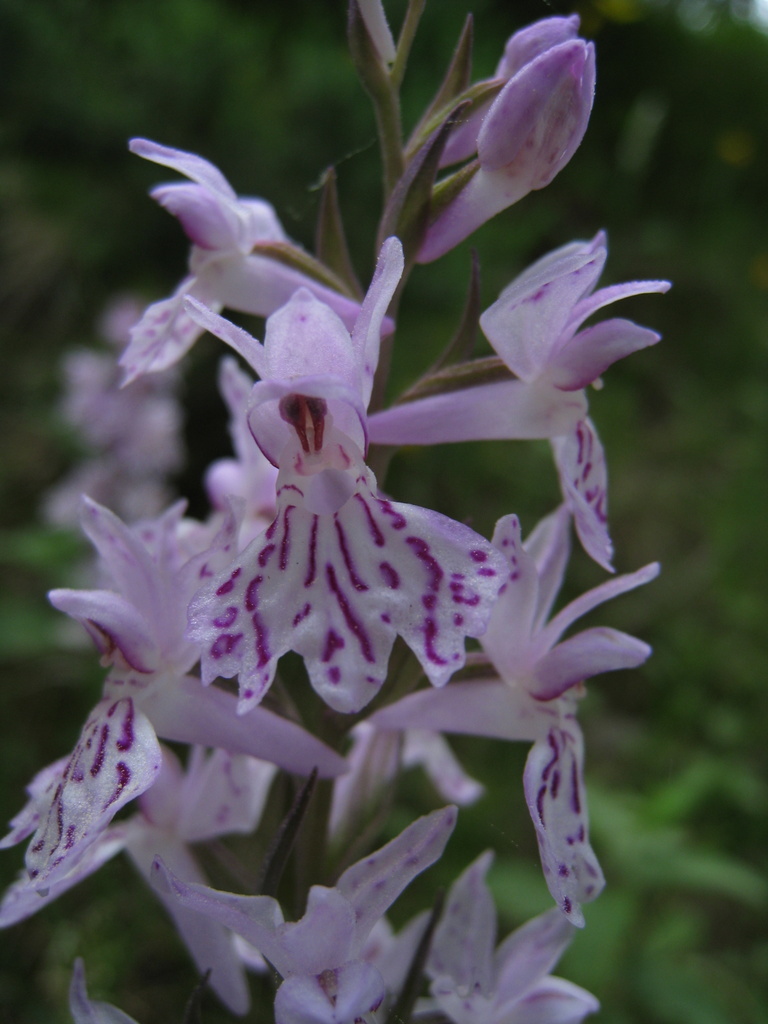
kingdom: Plantae
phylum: Tracheophyta
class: Liliopsida
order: Asparagales
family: Orchidaceae
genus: Dactylorhiza
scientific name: Dactylorhiza maculata
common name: Heath spotted-orchid
